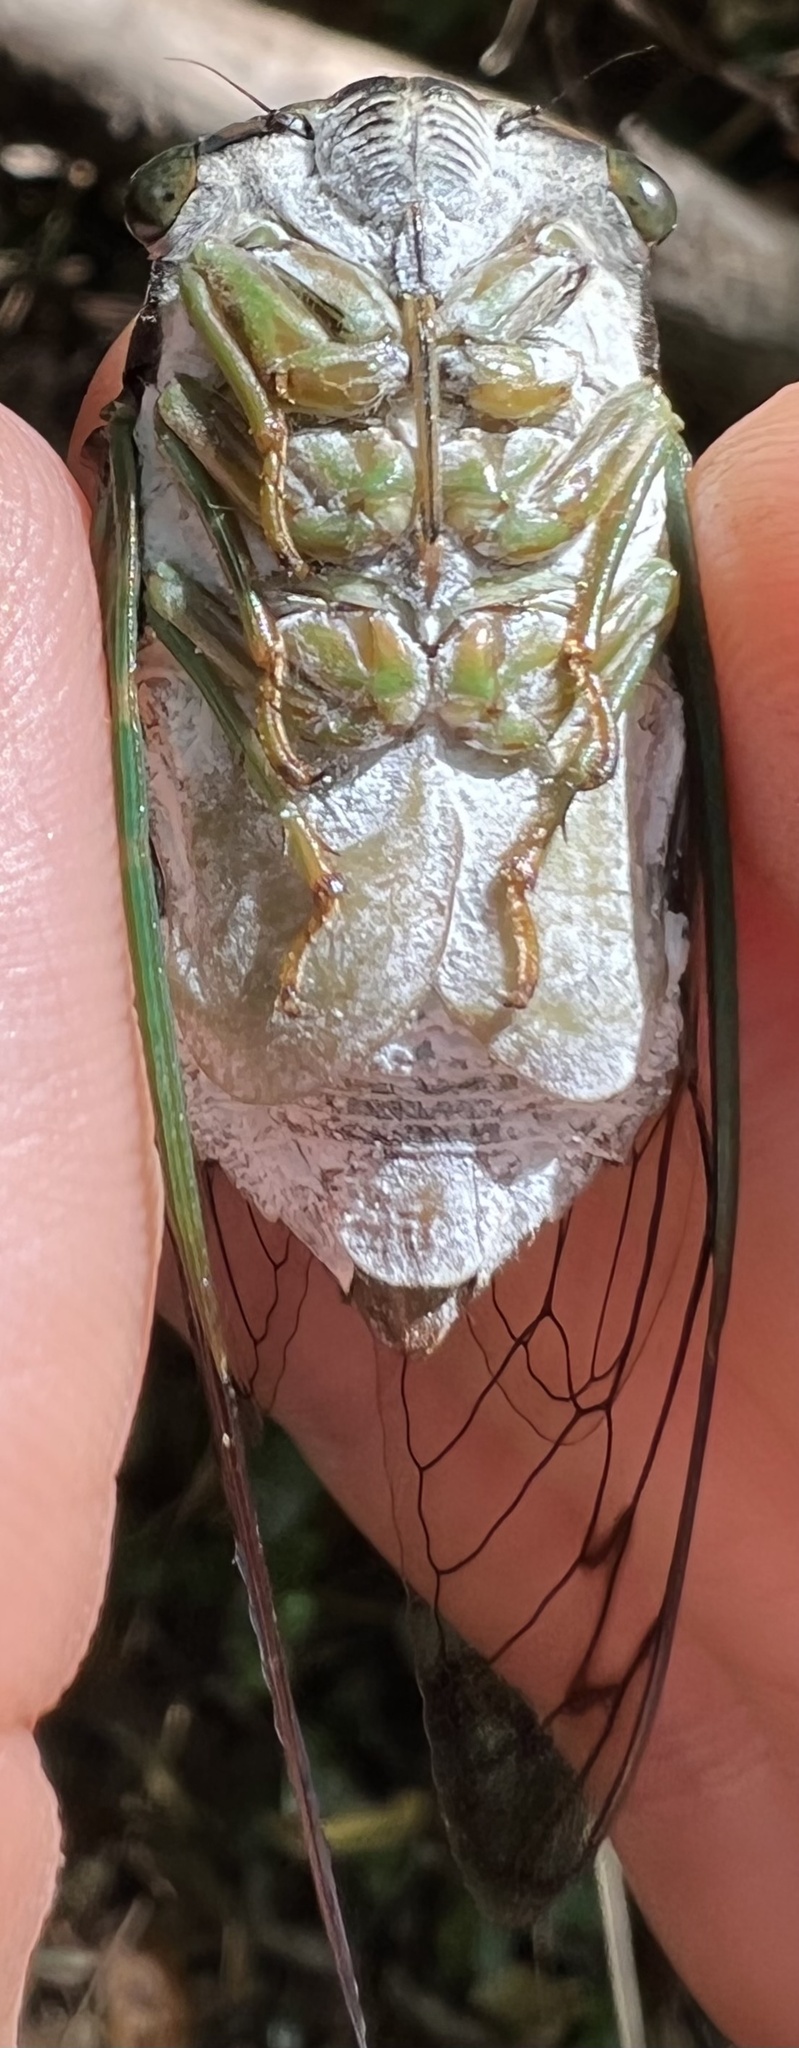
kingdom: Animalia
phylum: Arthropoda
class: Insecta
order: Hemiptera
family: Cicadidae
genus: Neotibicen
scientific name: Neotibicen tibicen
